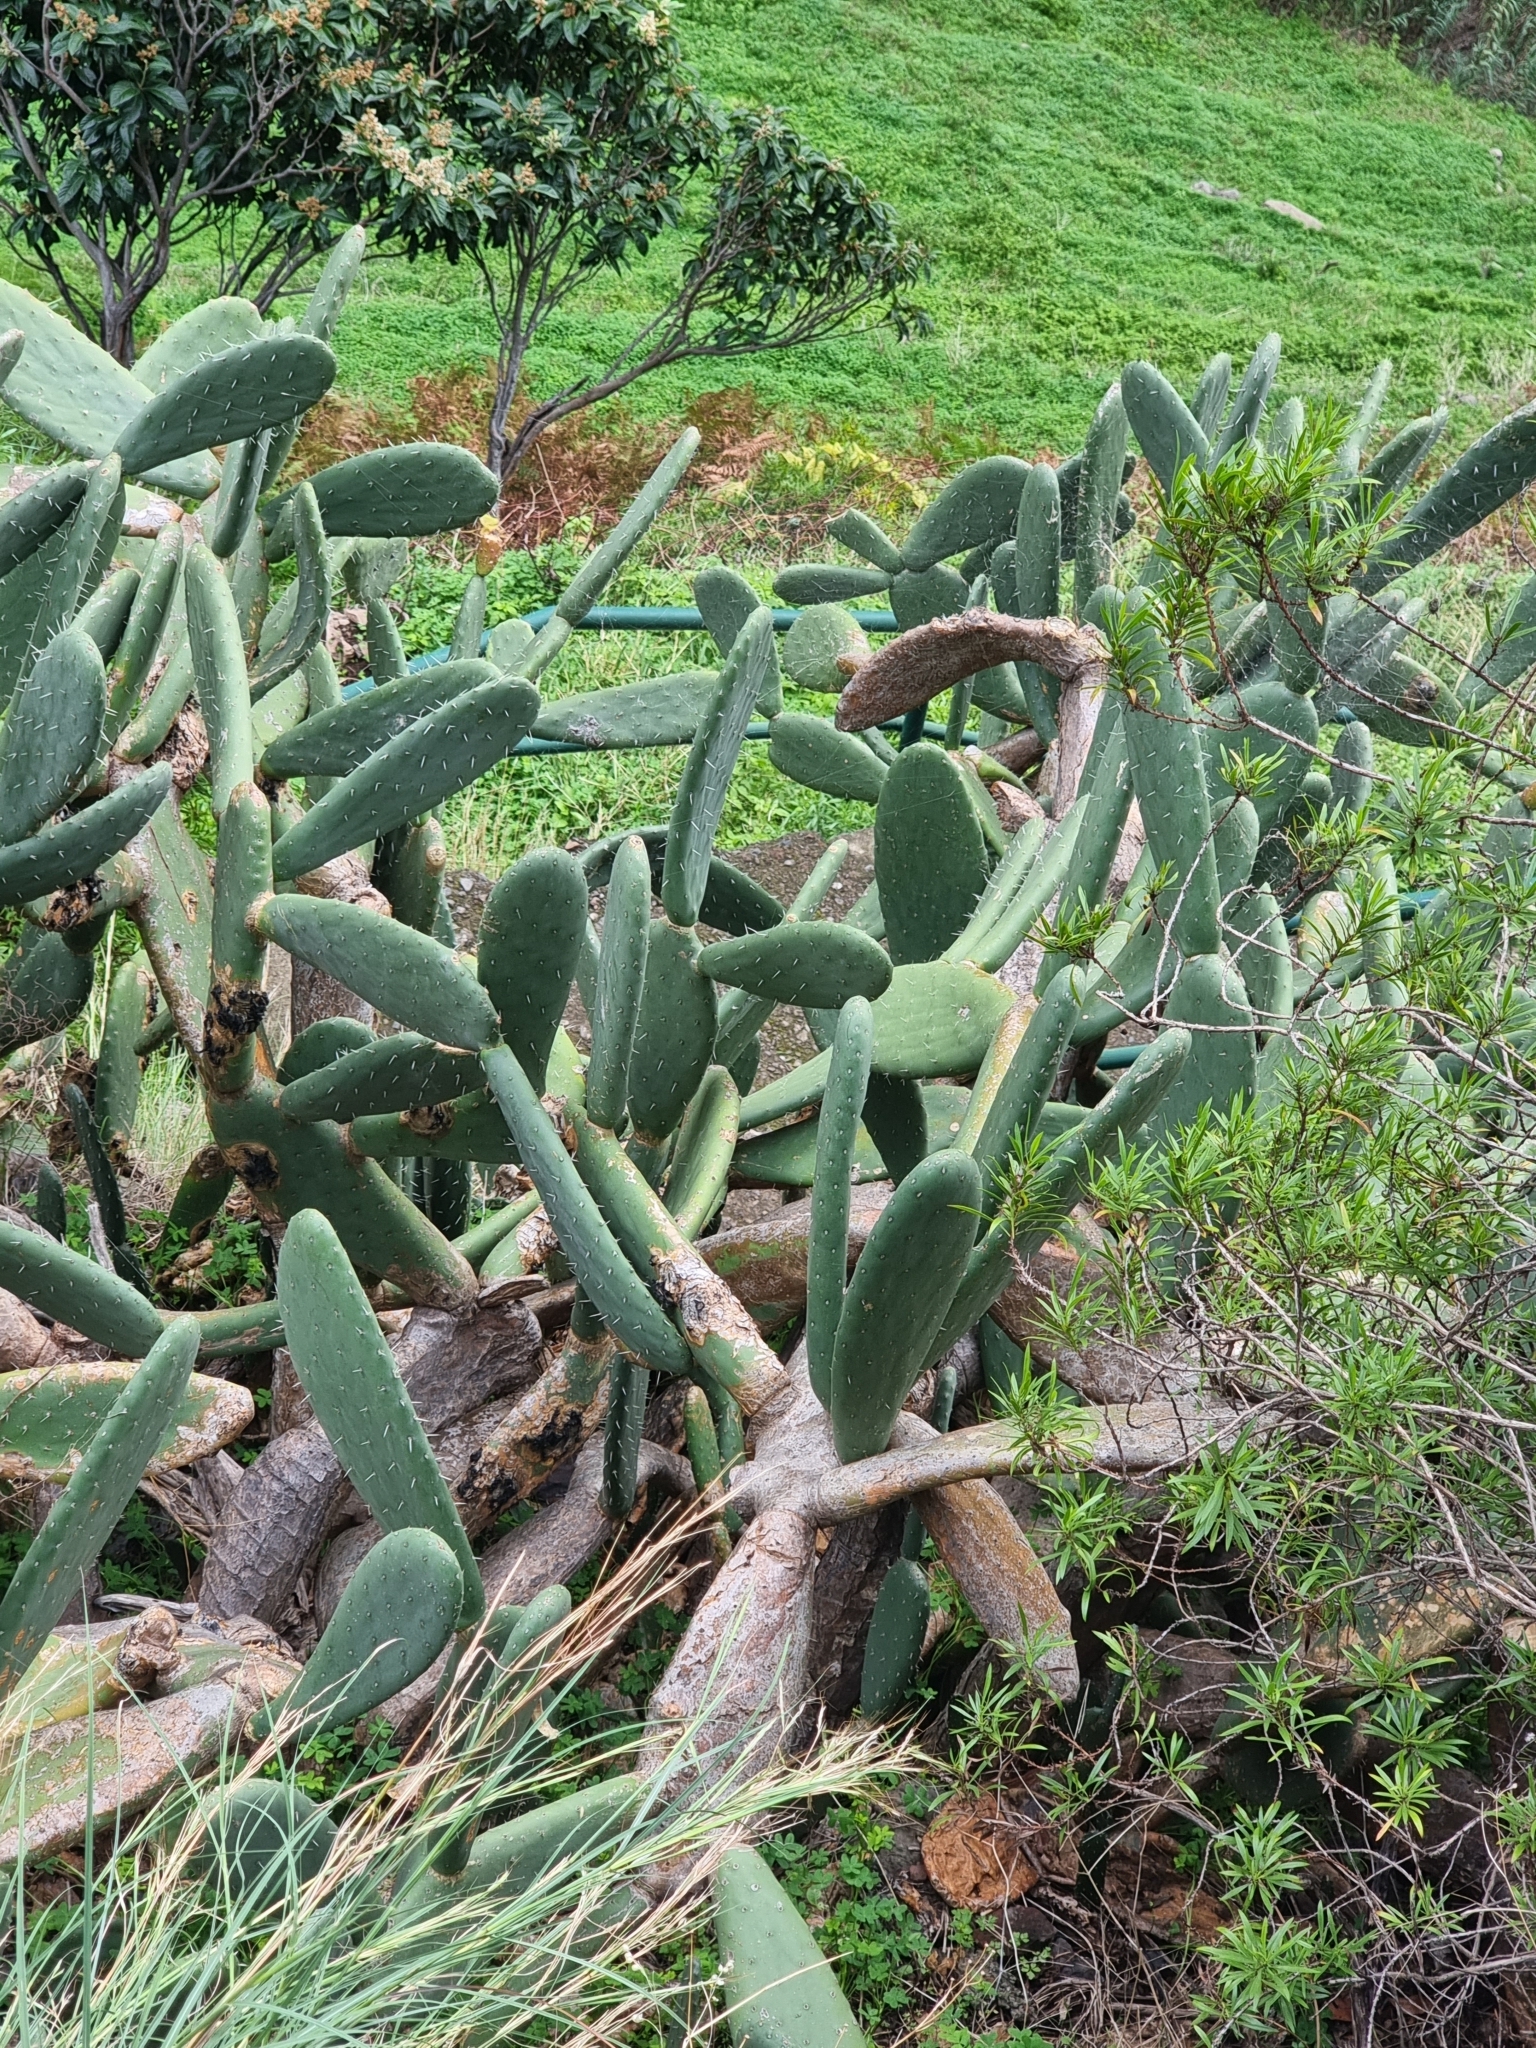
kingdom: Plantae
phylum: Tracheophyta
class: Magnoliopsida
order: Caryophyllales
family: Cactaceae
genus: Opuntia
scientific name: Opuntia ficus-indica
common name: Barbary fig
